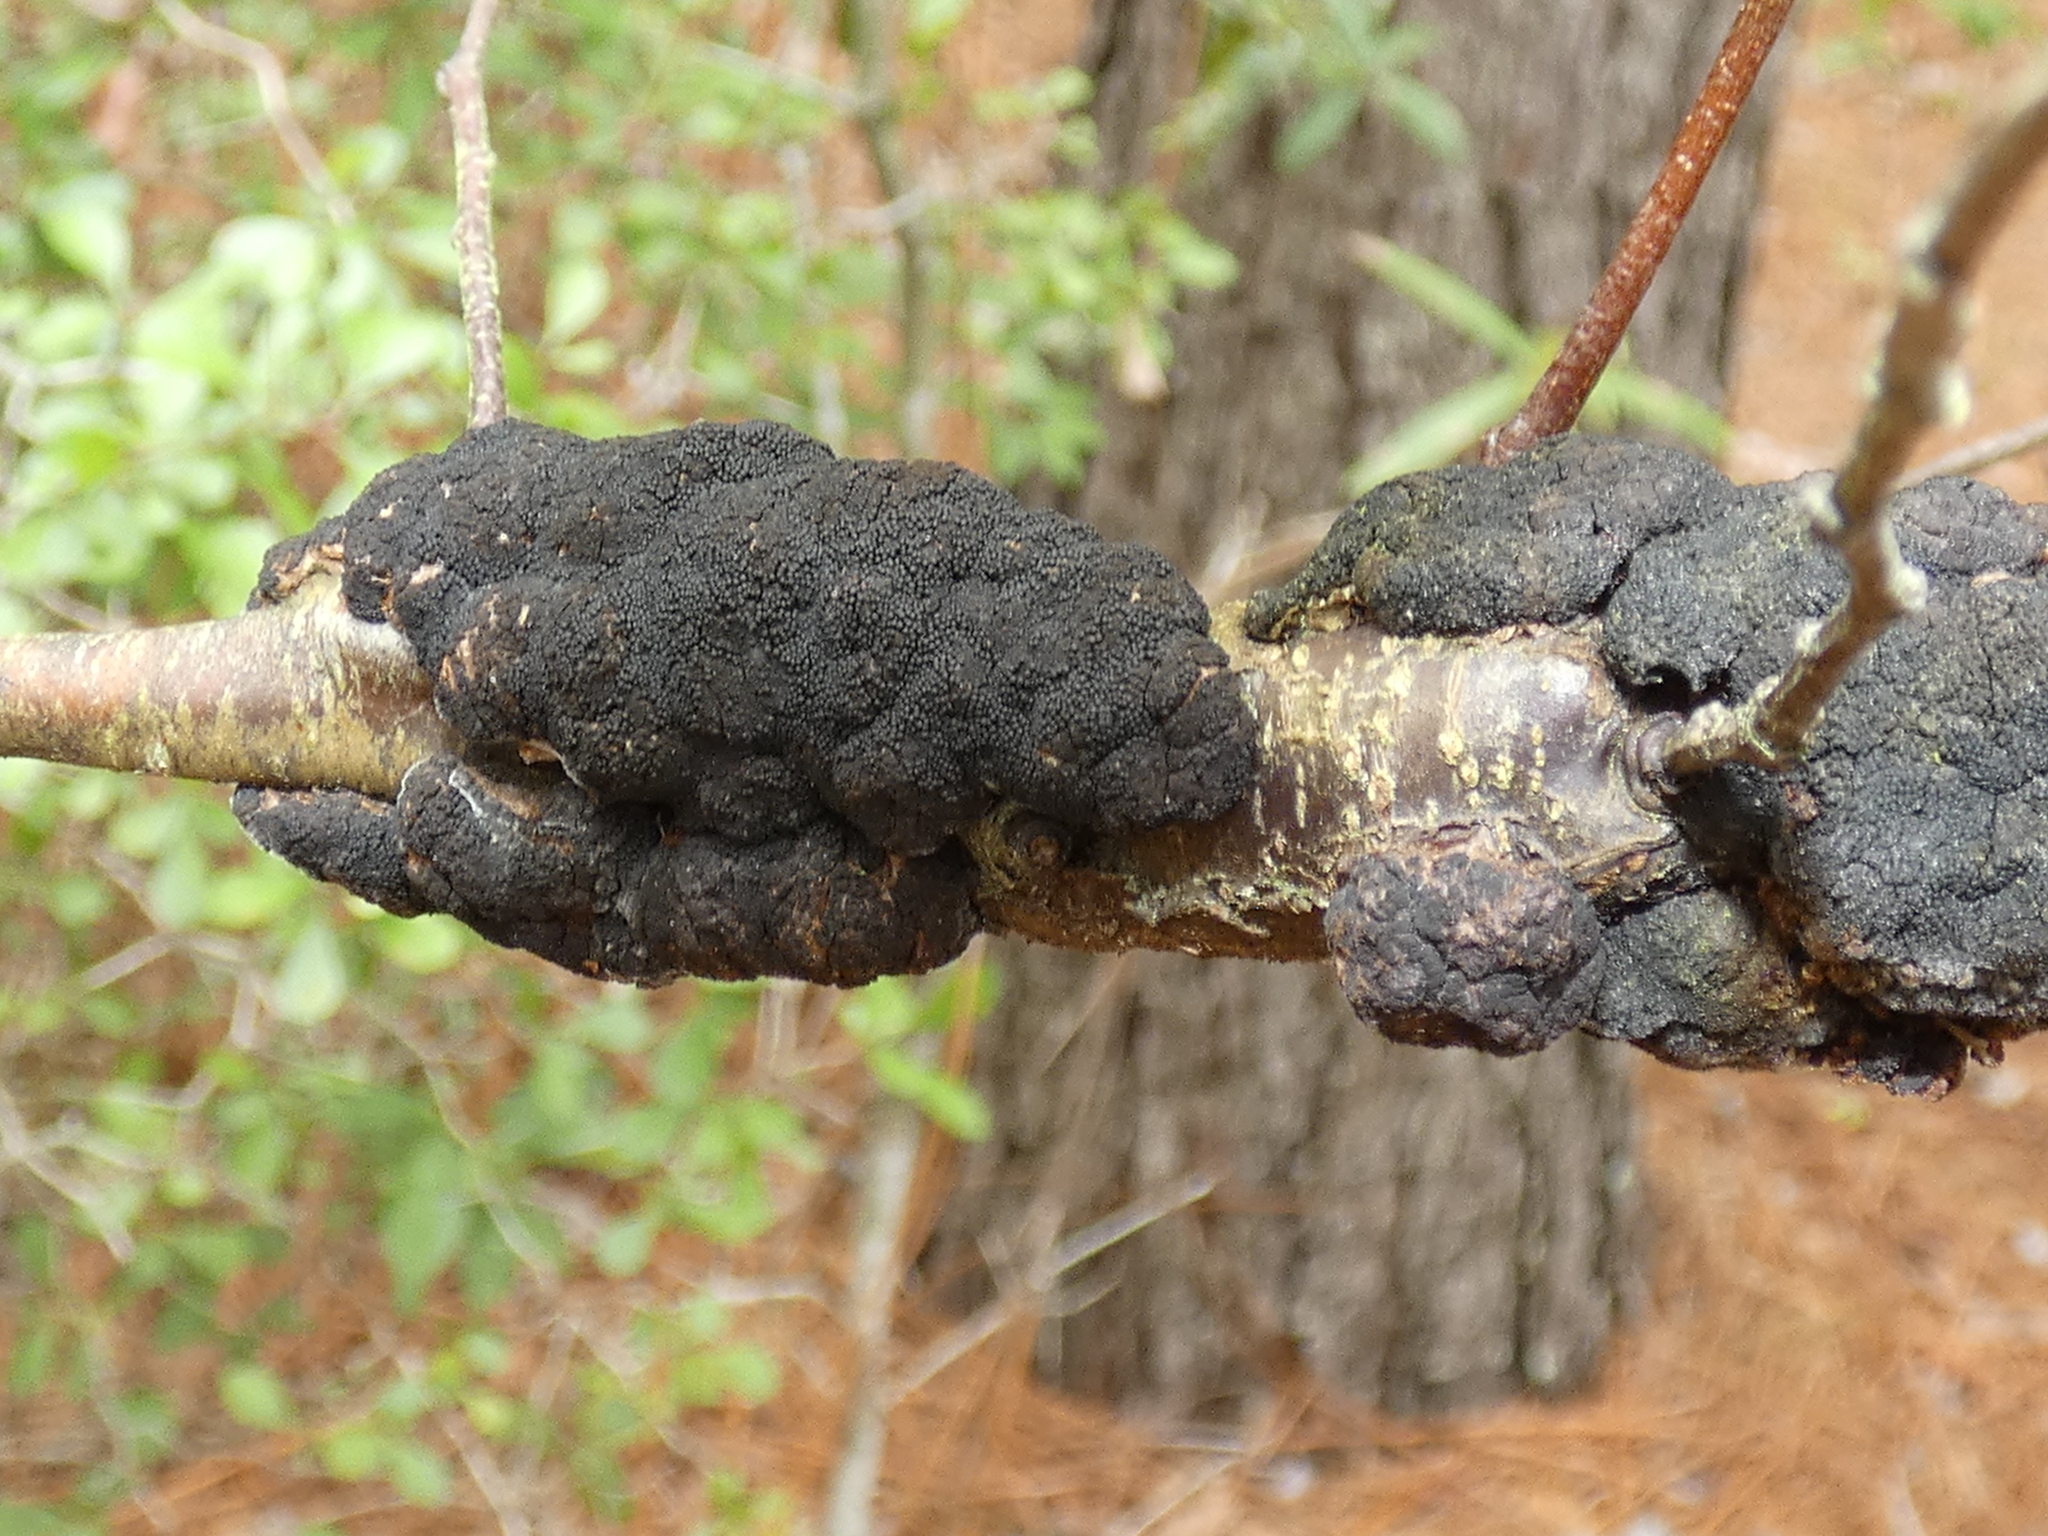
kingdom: Fungi
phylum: Ascomycota
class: Dothideomycetes
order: Venturiales
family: Venturiaceae
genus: Apiosporina
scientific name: Apiosporina morbosa
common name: Black knot
